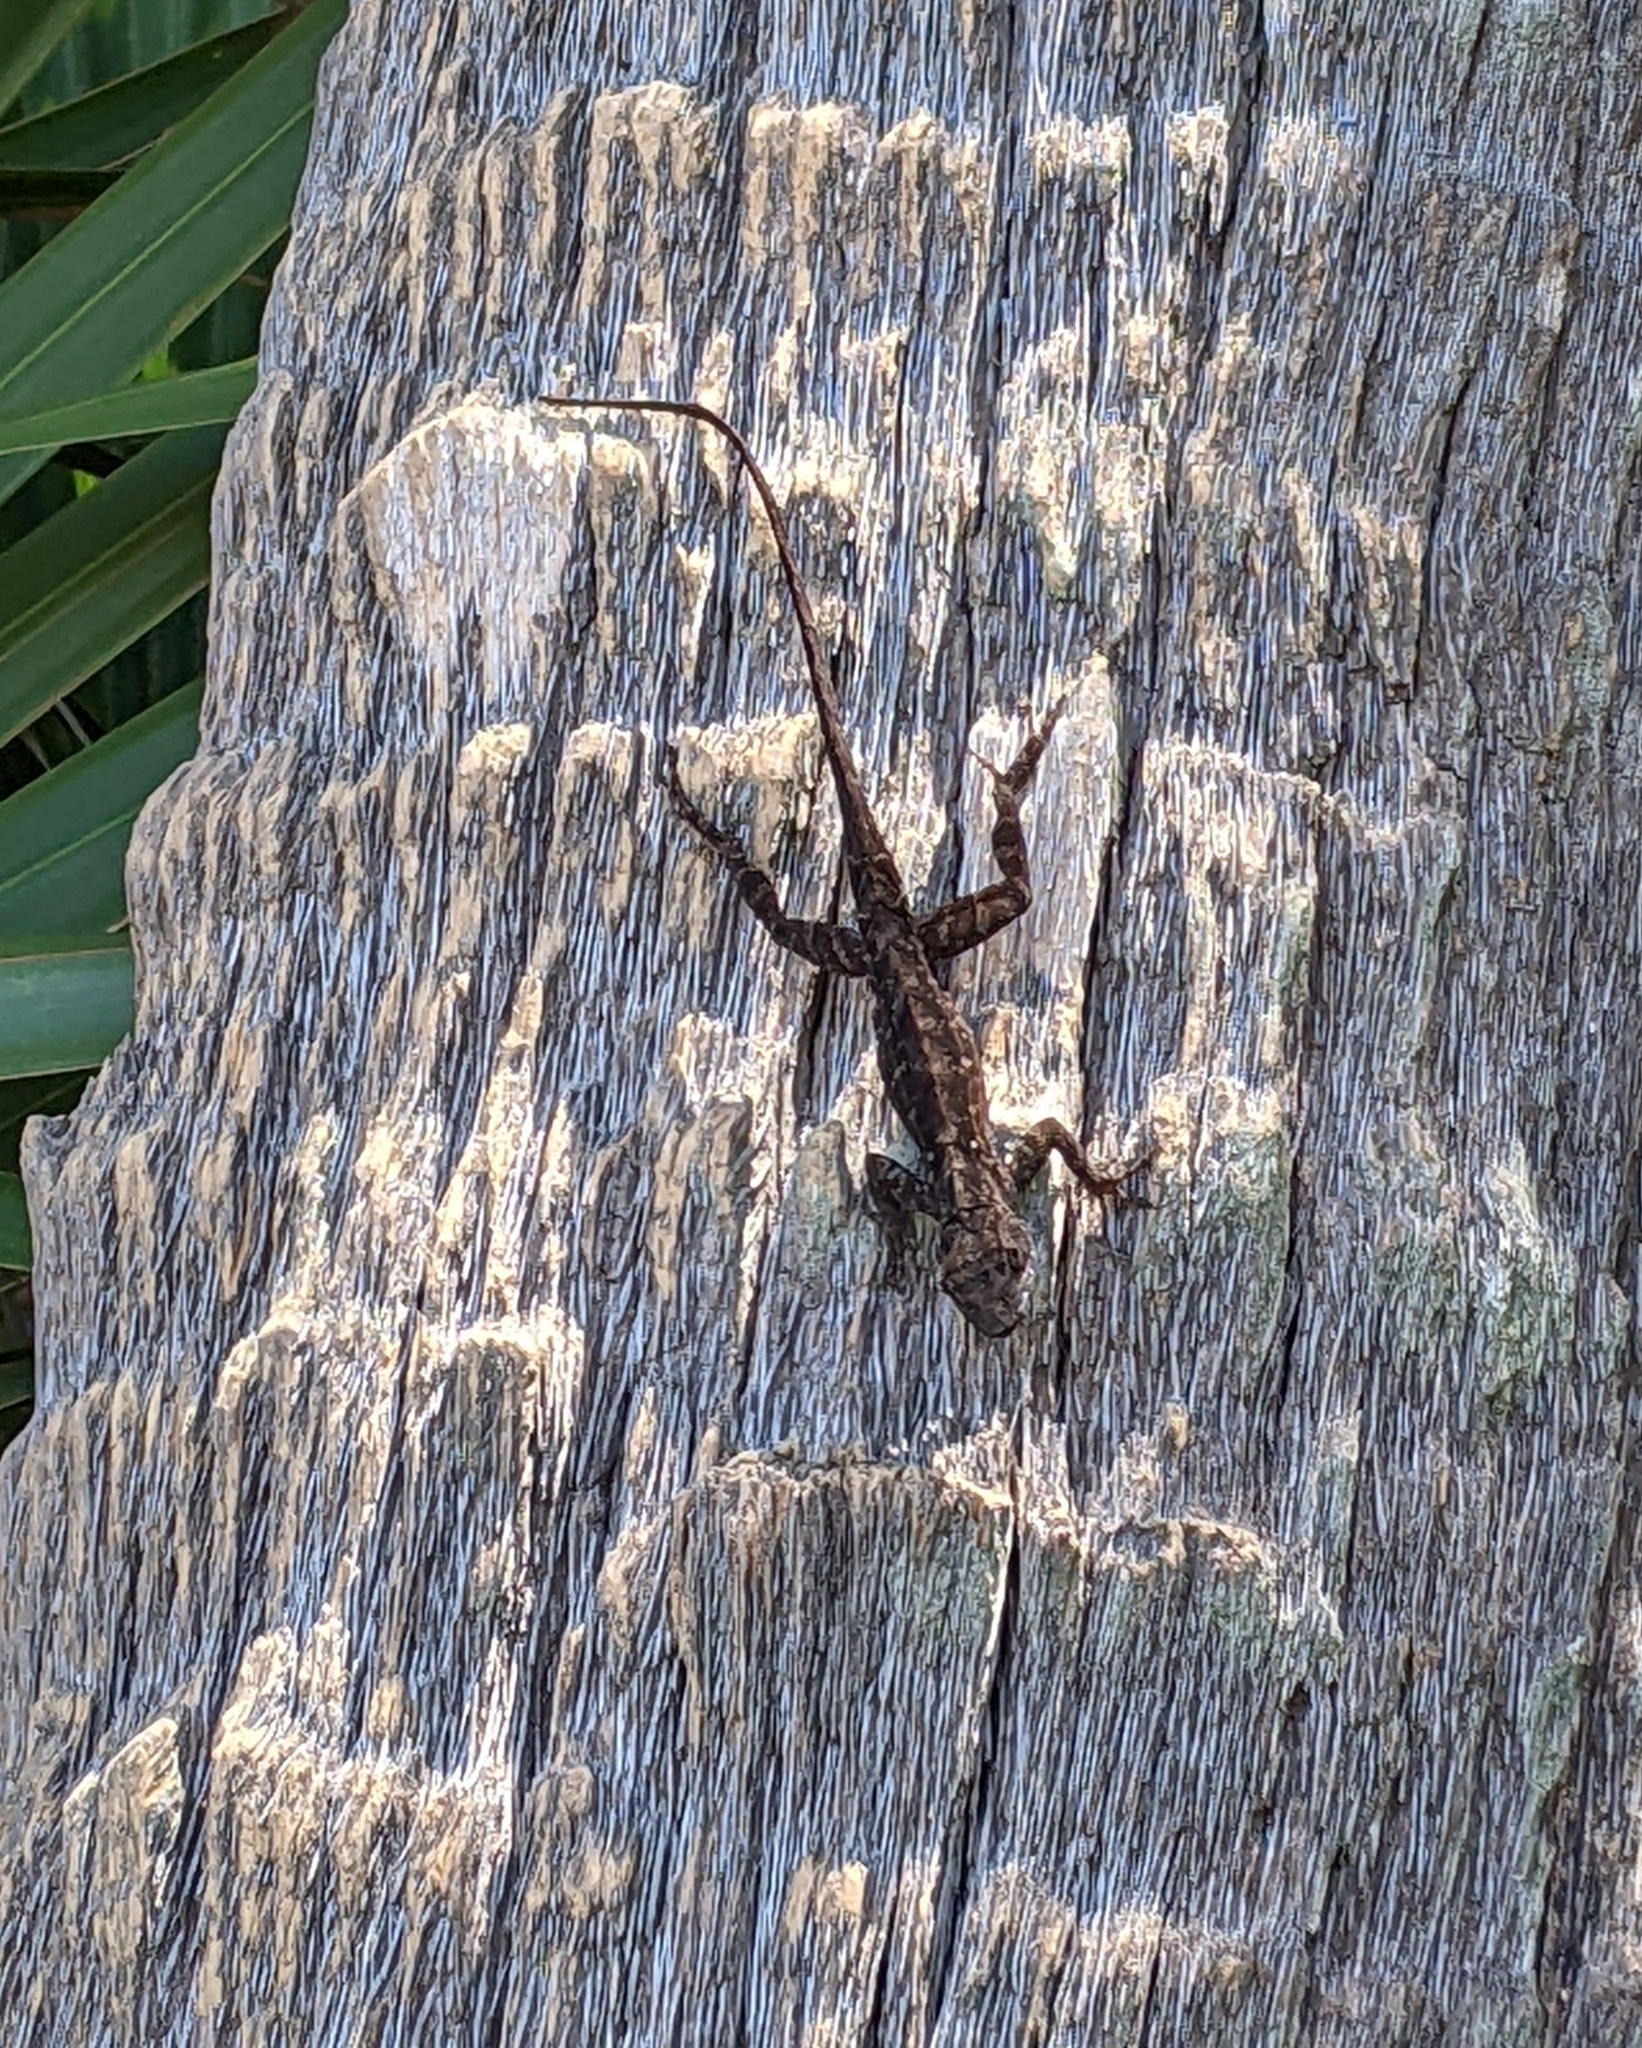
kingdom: Animalia
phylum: Chordata
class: Squamata
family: Dactyloidae
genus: Anolis
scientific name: Anolis sagrei
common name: Brown anole
